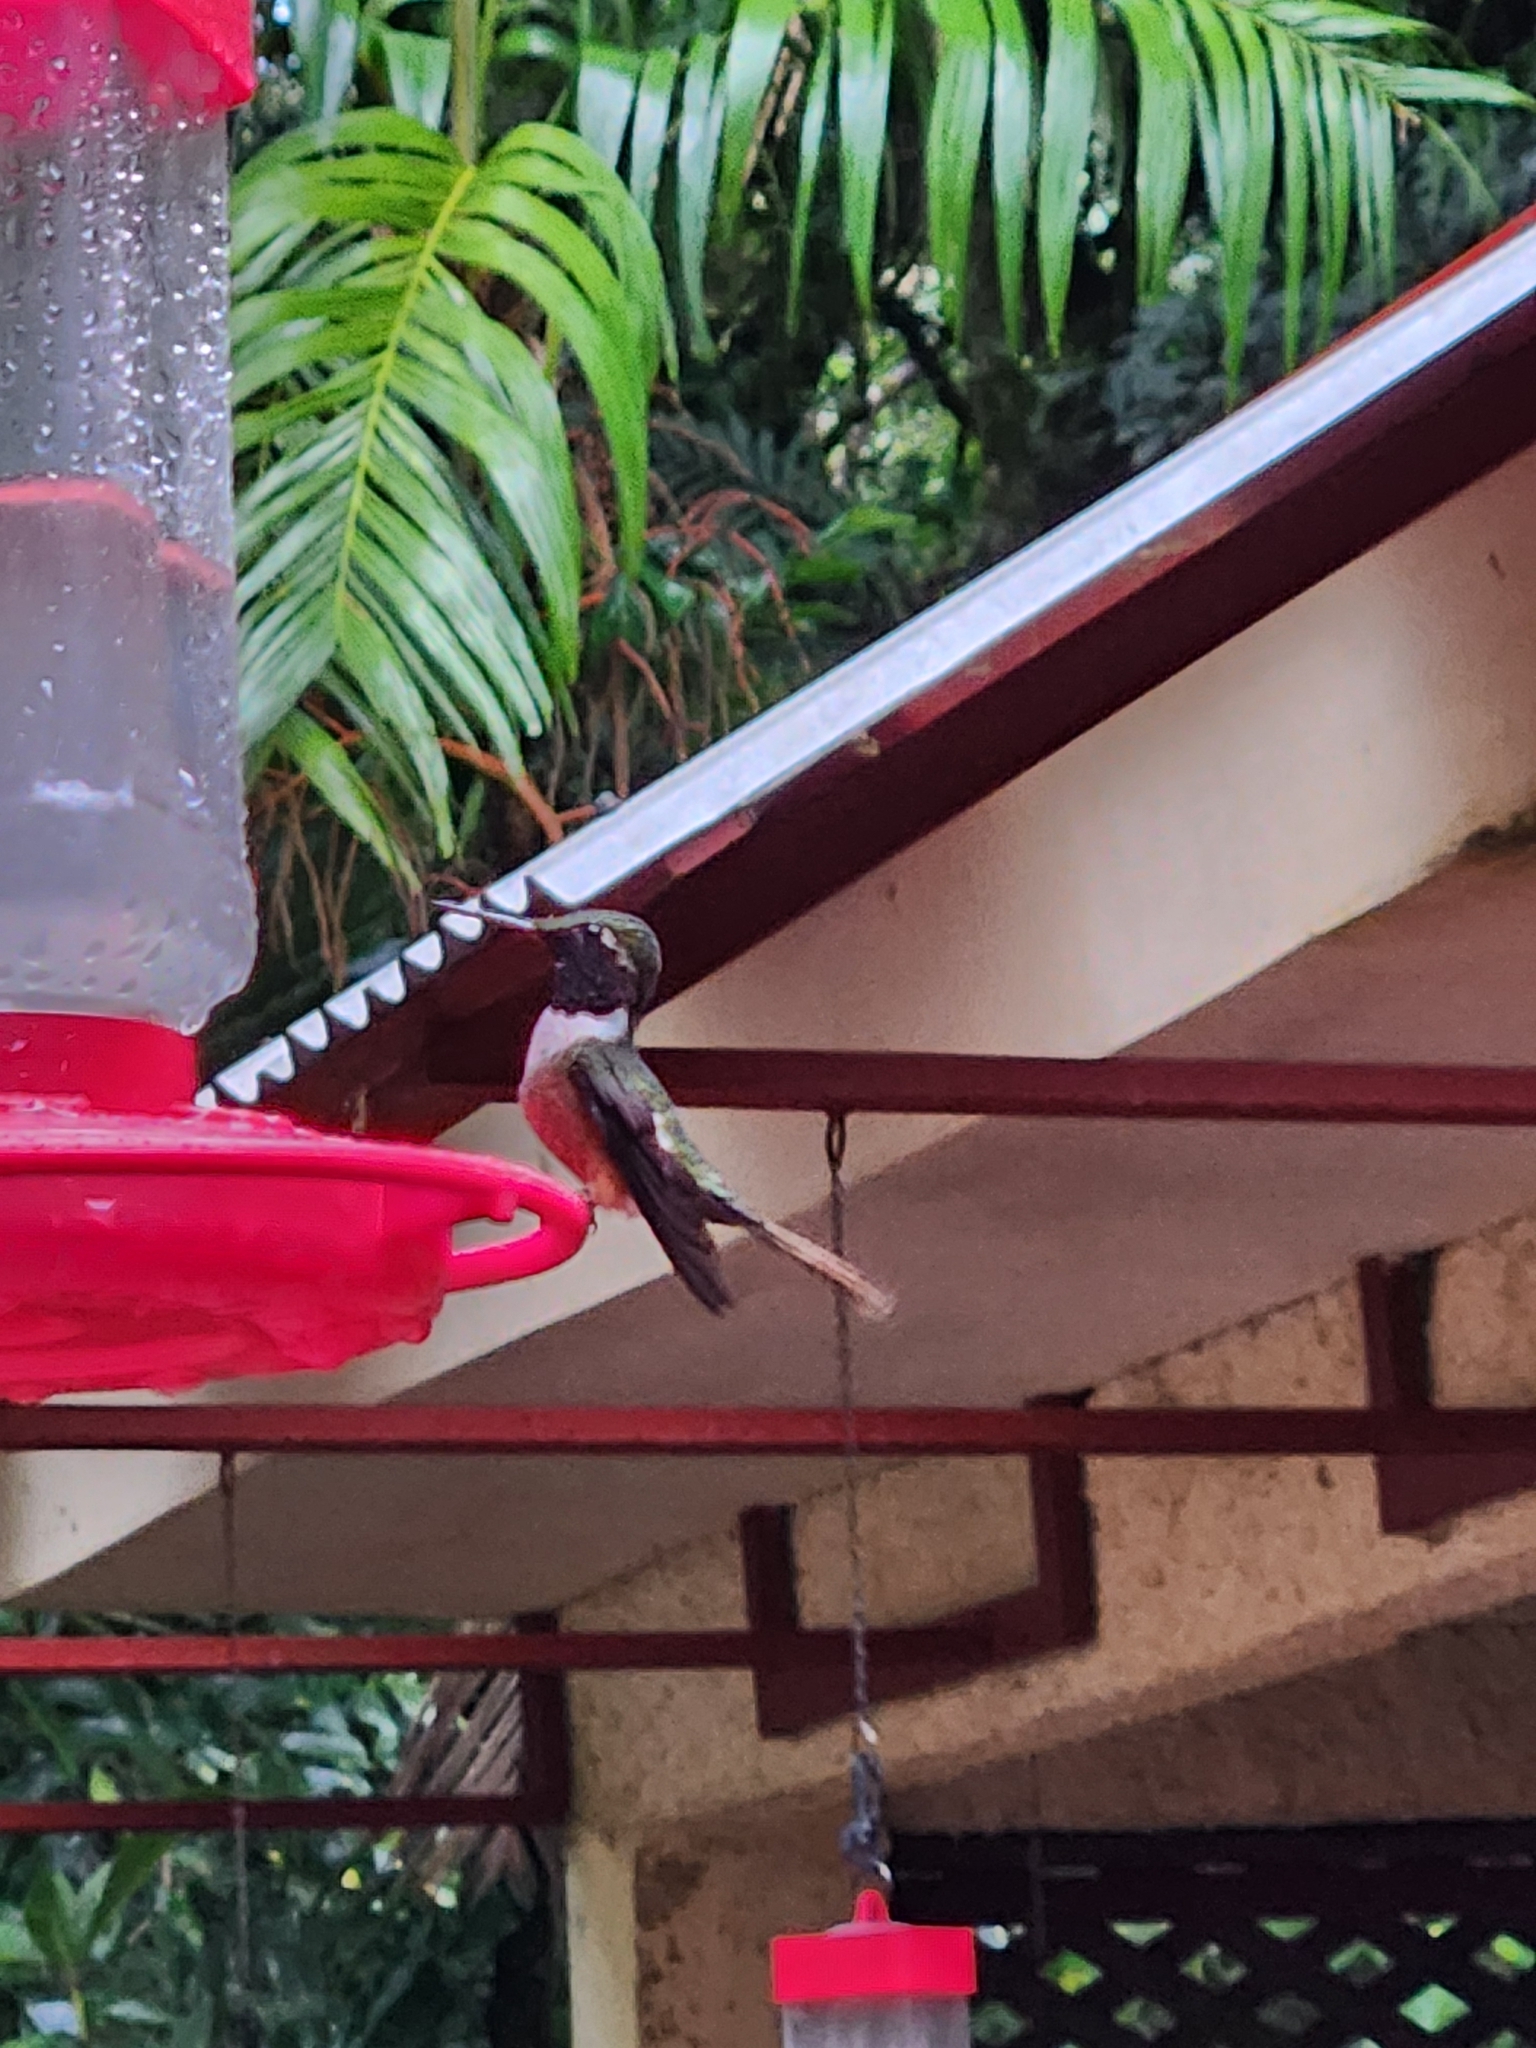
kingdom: Animalia
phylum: Chordata
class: Aves
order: Apodiformes
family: Trochilidae
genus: Calliphlox
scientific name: Calliphlox bryantae
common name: Magenta-throated woodstar
